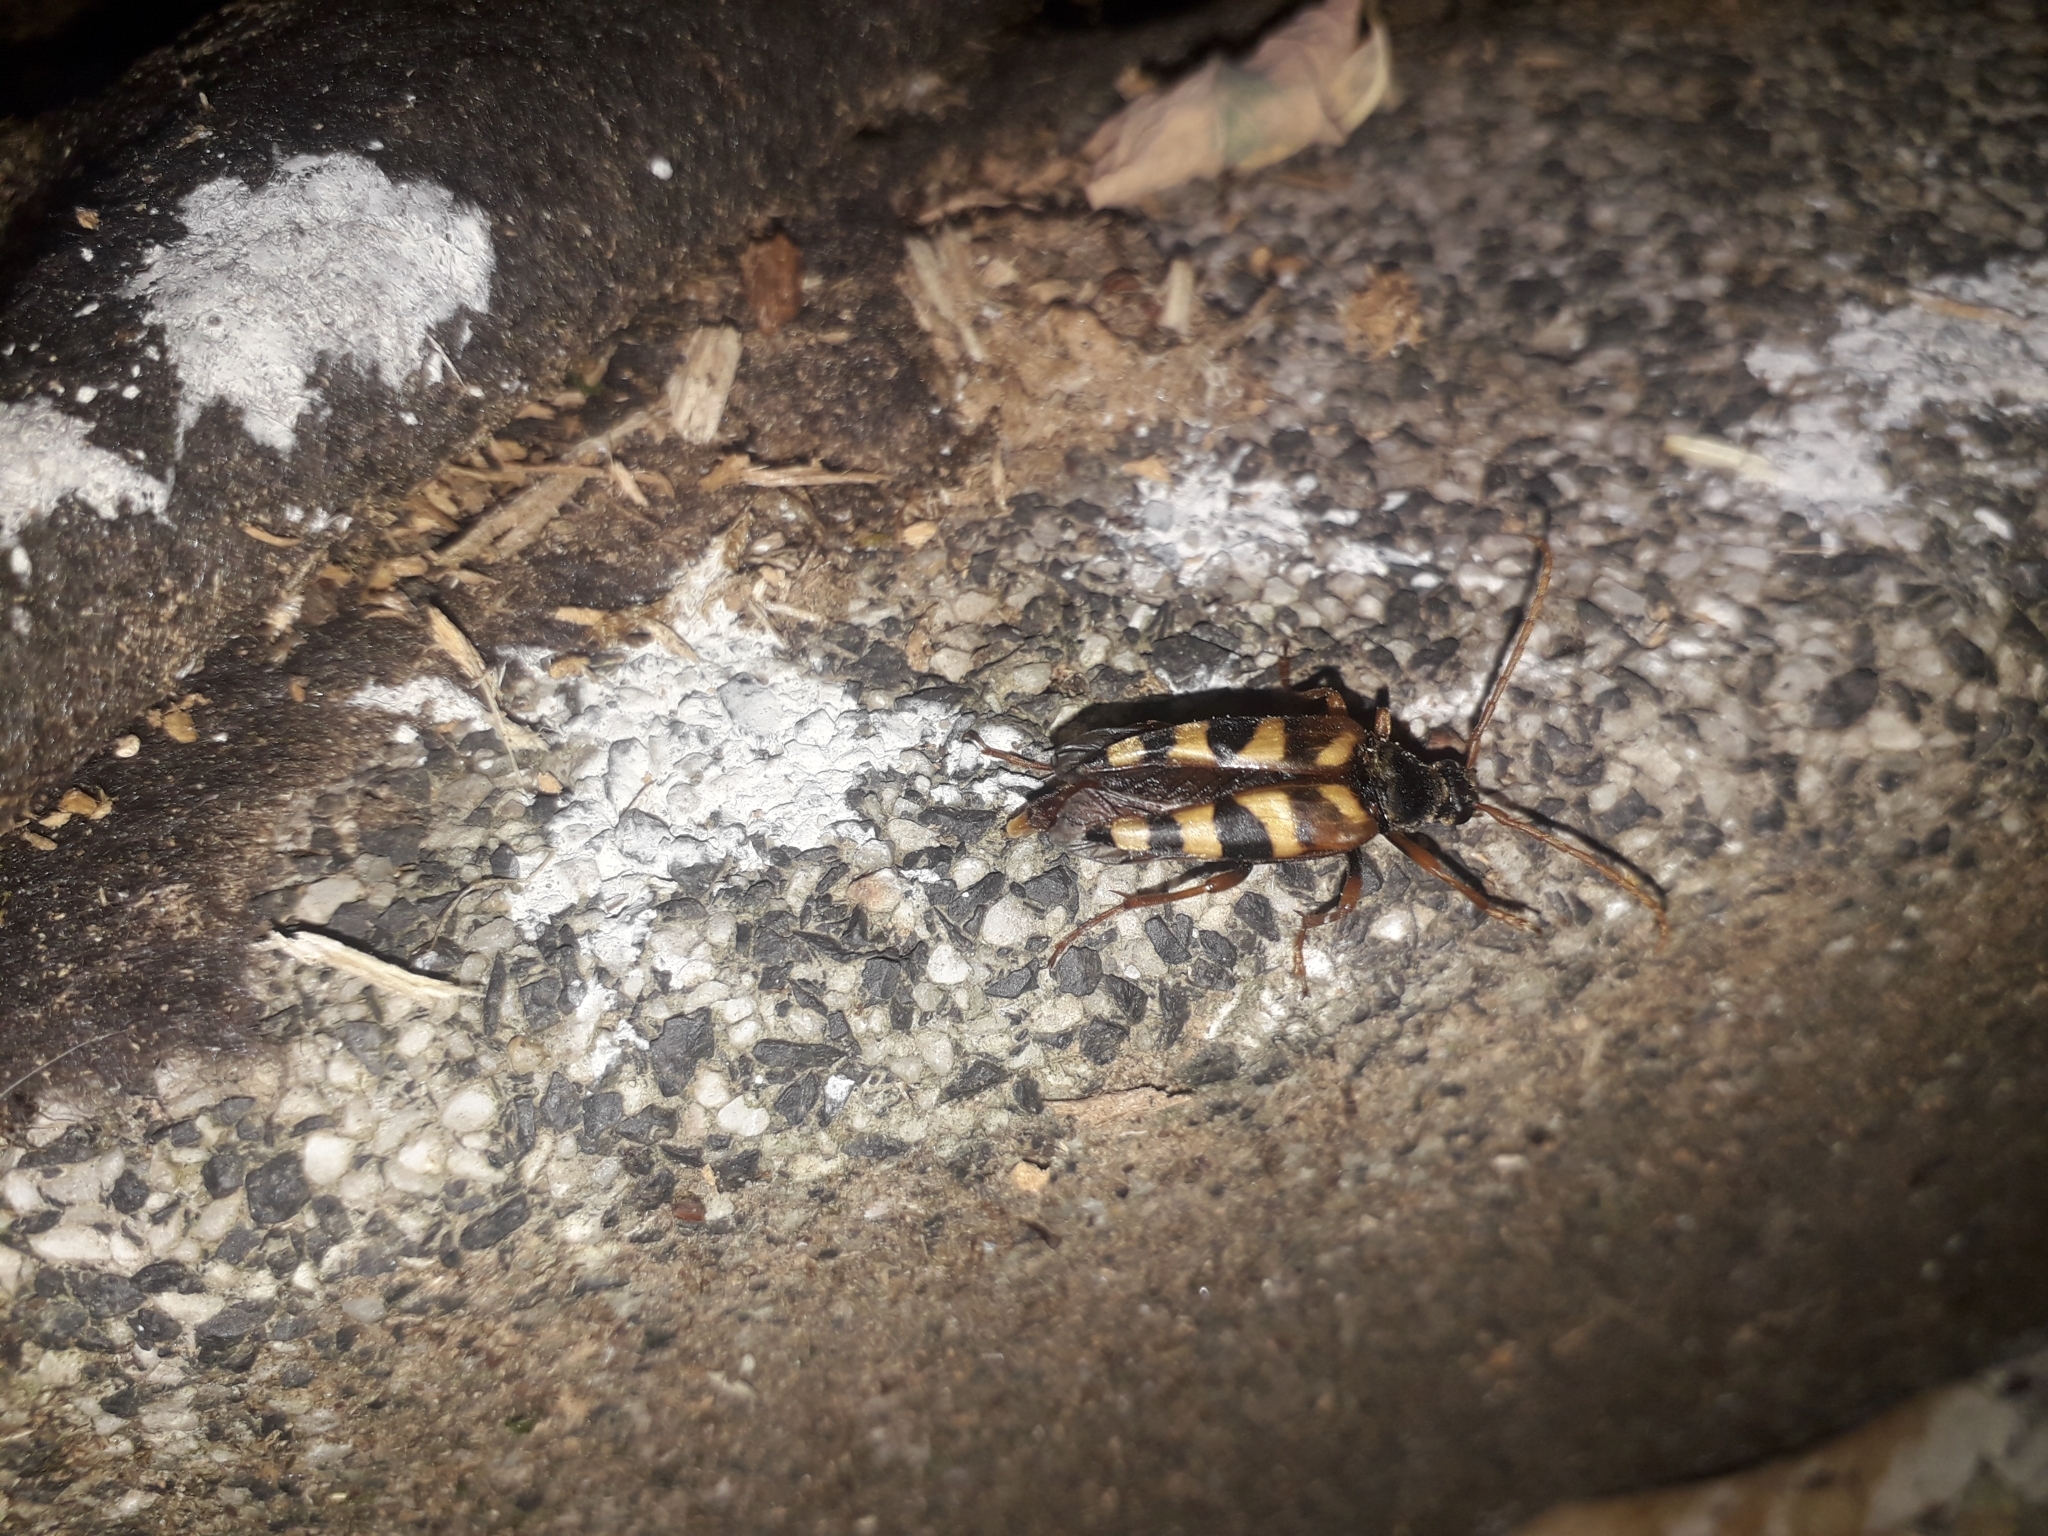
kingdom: Animalia
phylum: Arthropoda
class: Insecta
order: Coleoptera
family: Cerambycidae
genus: Leptura
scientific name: Leptura aurulenta
